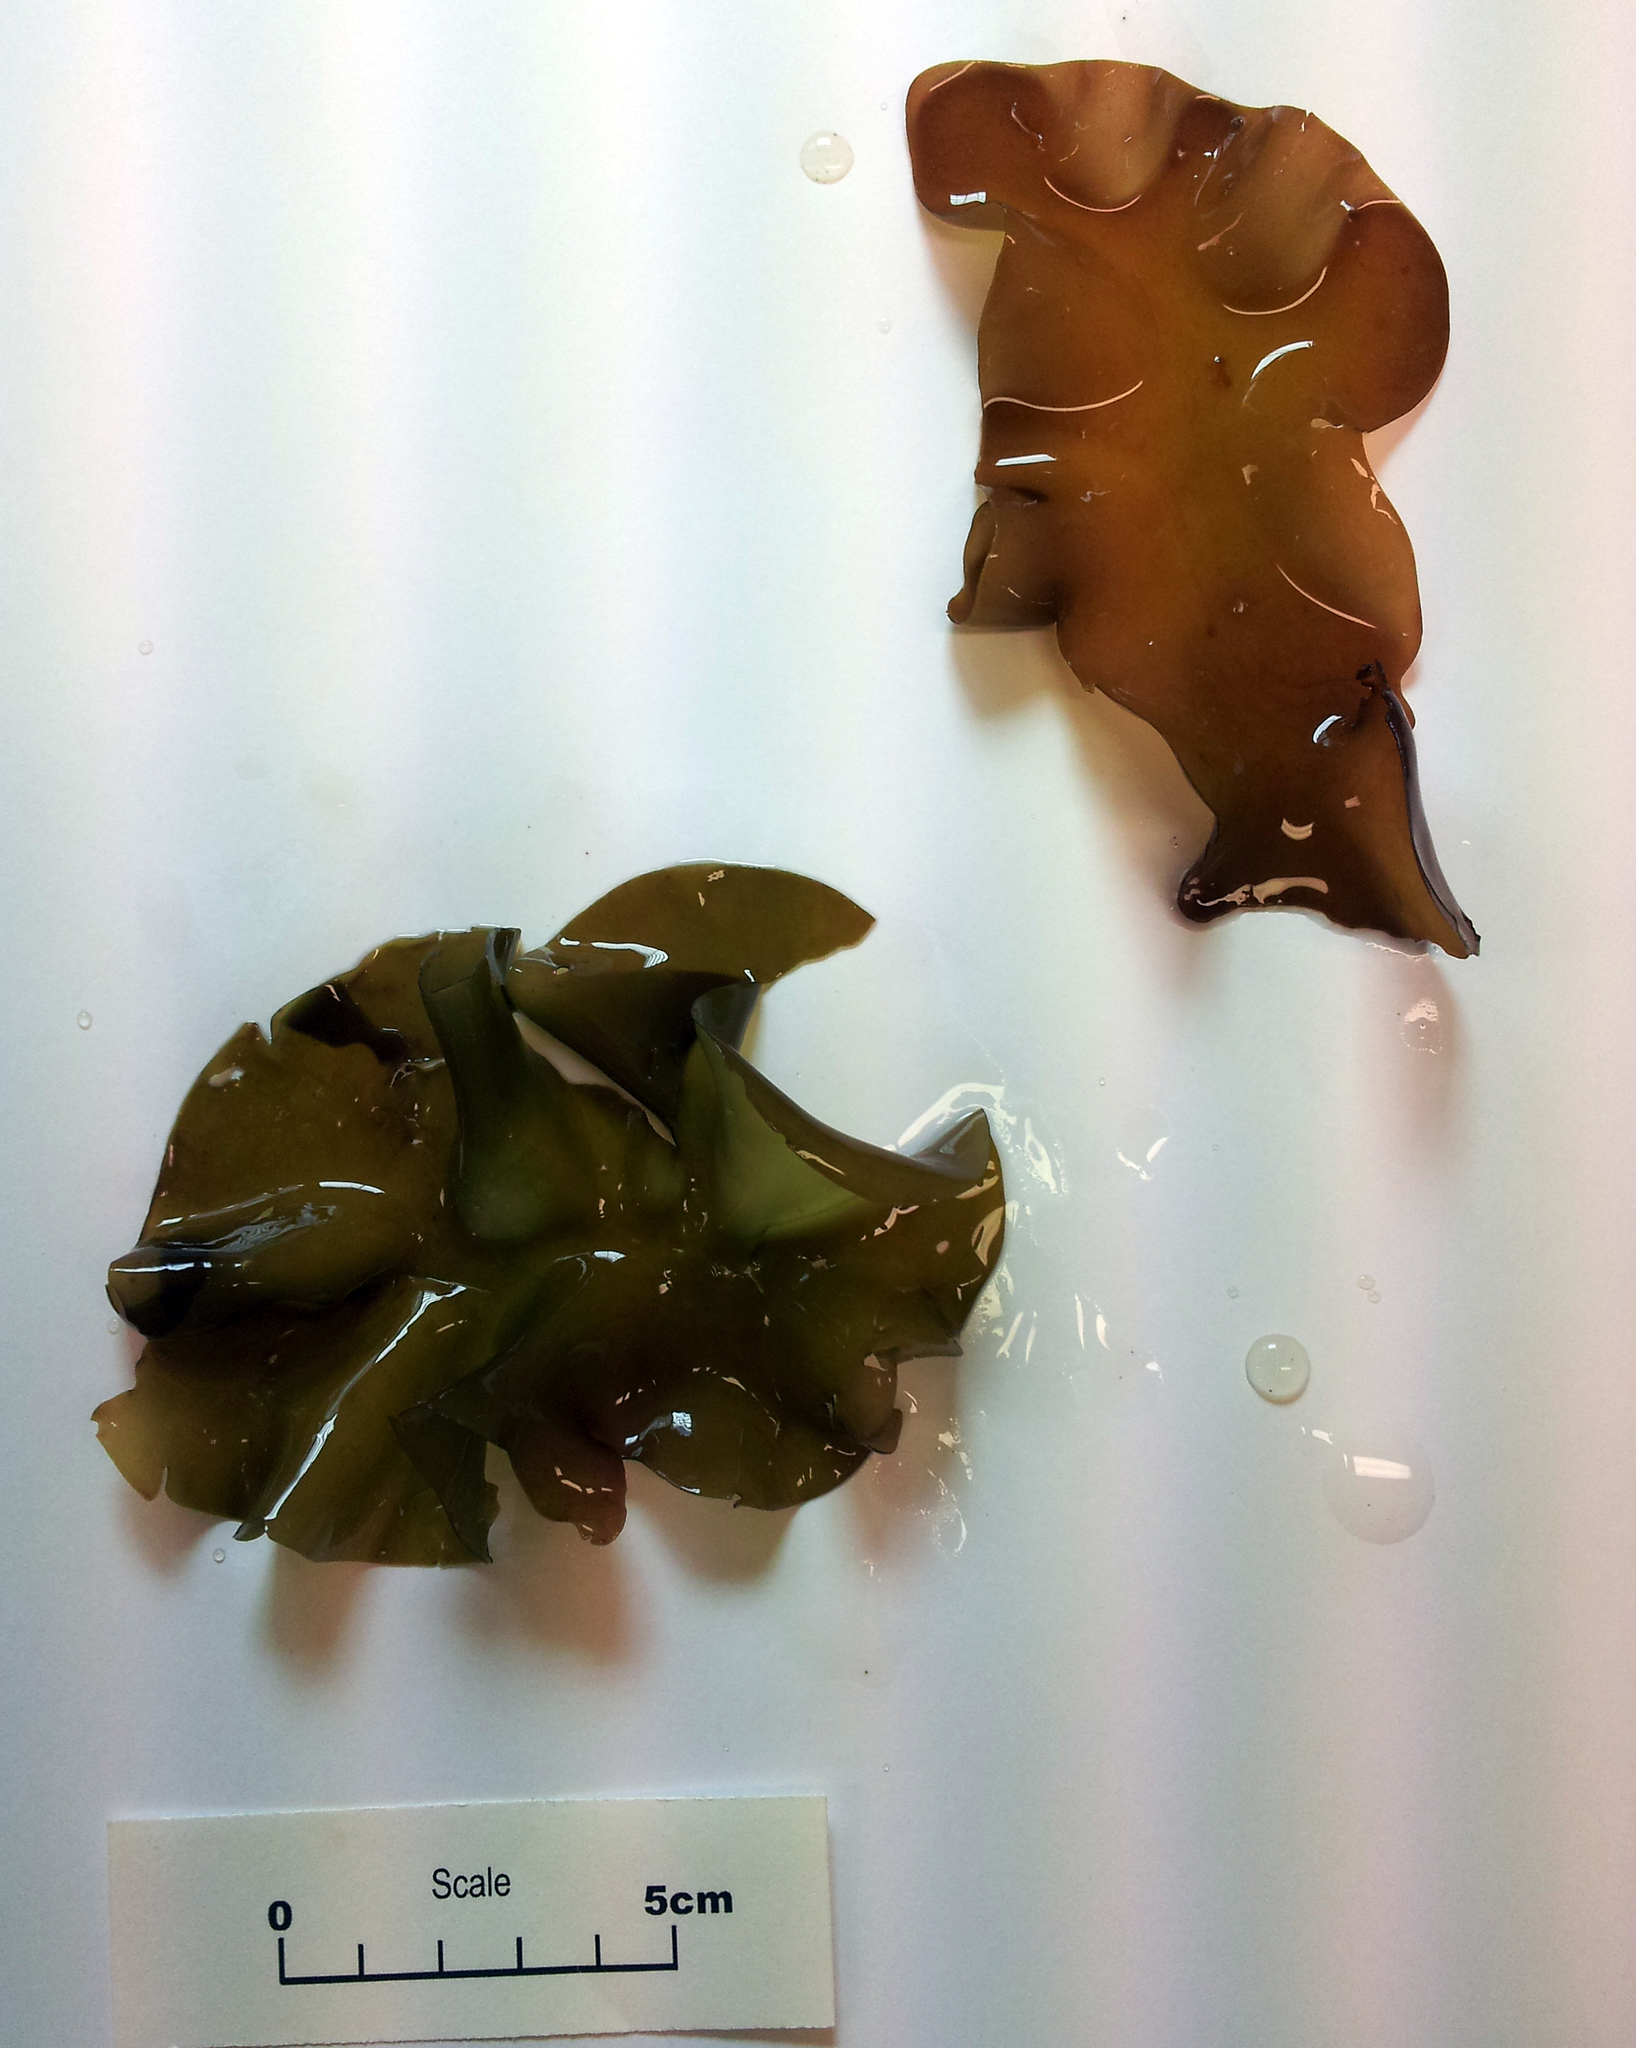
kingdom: Plantae
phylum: Rhodophyta
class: Florideophyceae
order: Halymeniales
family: Halymeniaceae
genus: Aeodes
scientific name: Aeodes nitidissima
